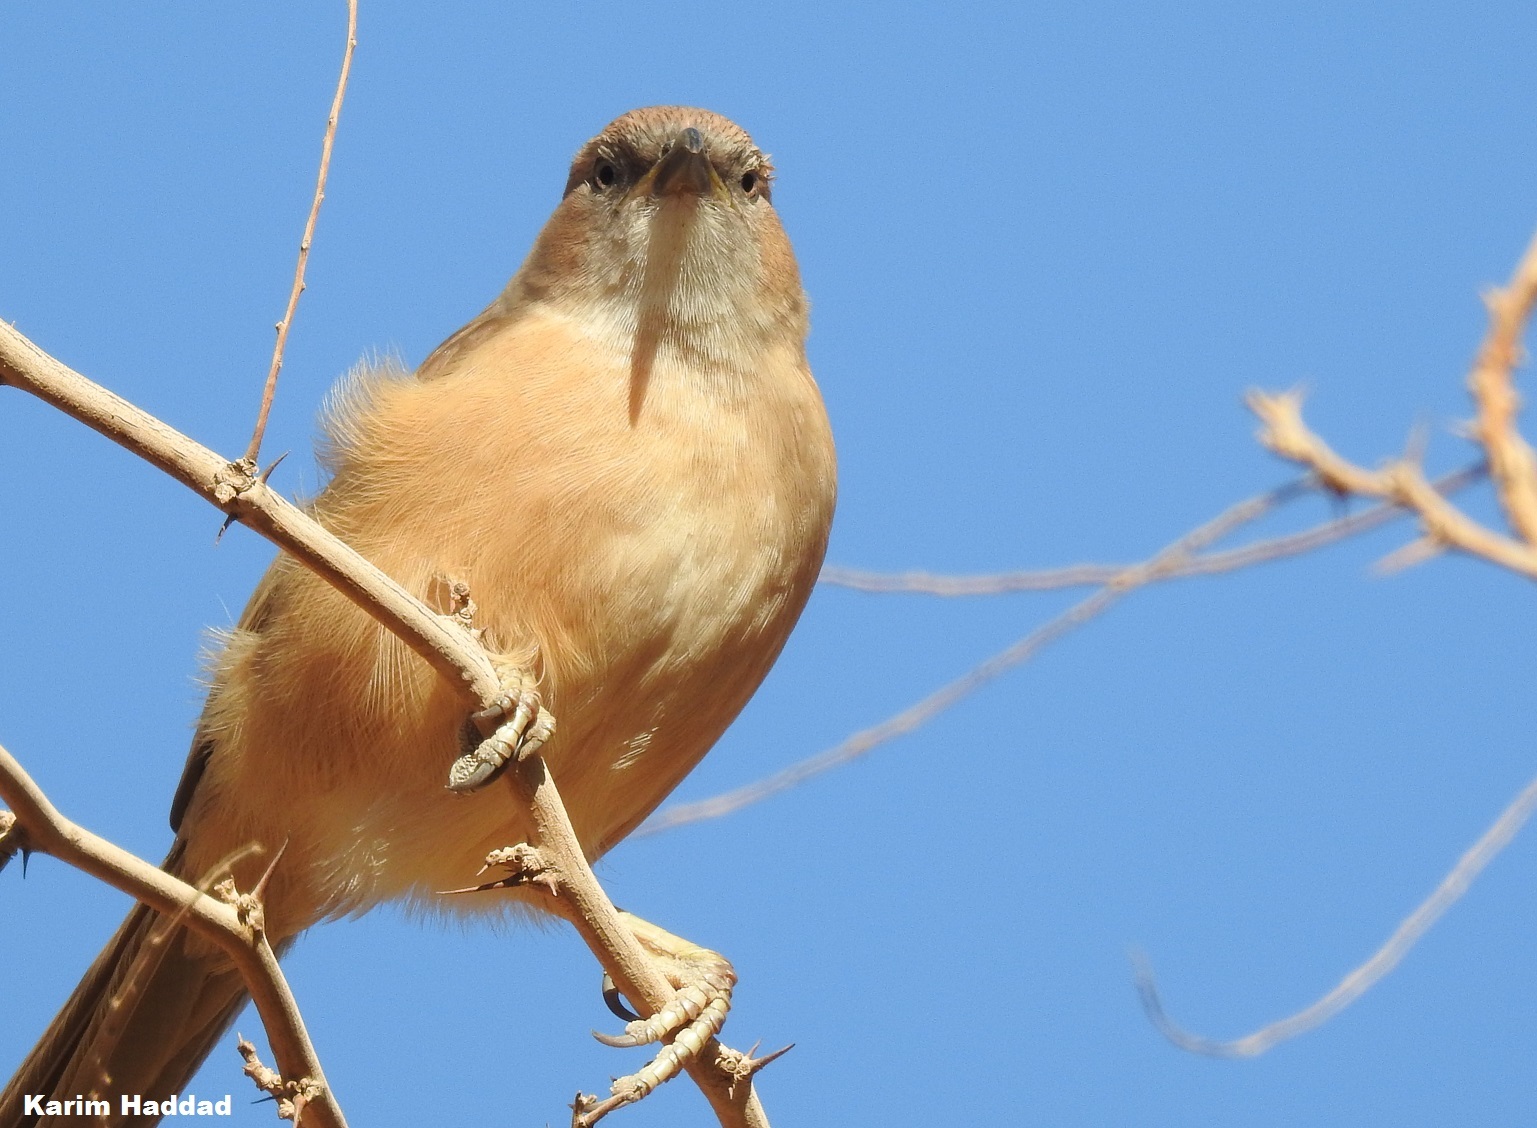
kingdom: Animalia
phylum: Chordata
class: Aves
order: Passeriformes
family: Leiothrichidae
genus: Turdoides
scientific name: Turdoides fulva
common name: Fulvous babbler
